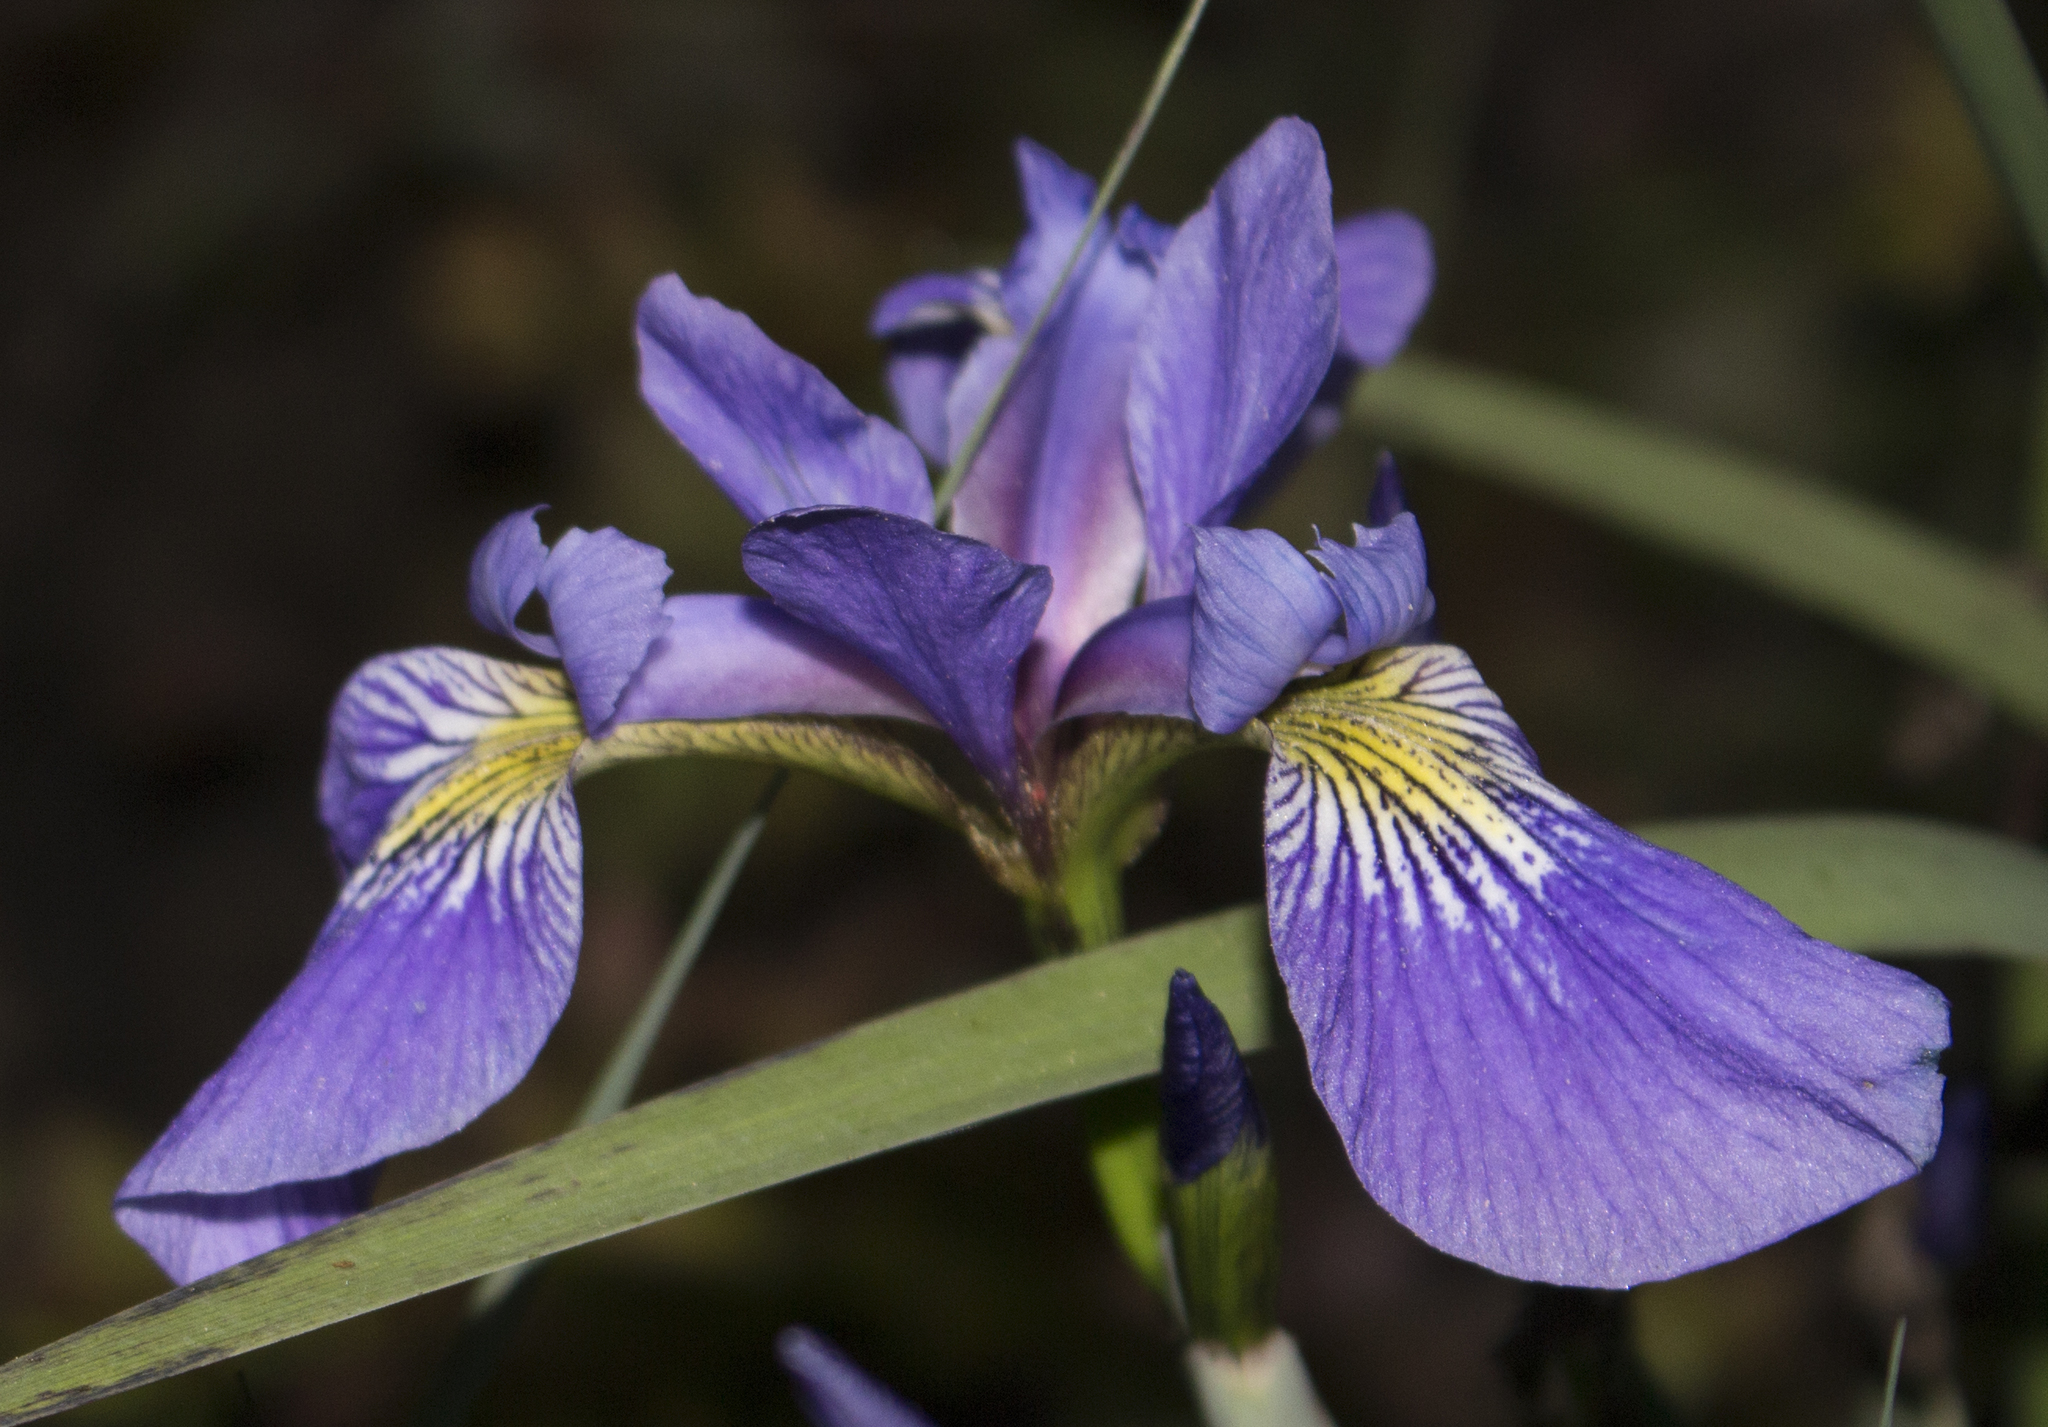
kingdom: Plantae
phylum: Tracheophyta
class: Liliopsida
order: Asparagales
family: Iridaceae
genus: Iris
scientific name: Iris versicolor
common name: Purple iris
